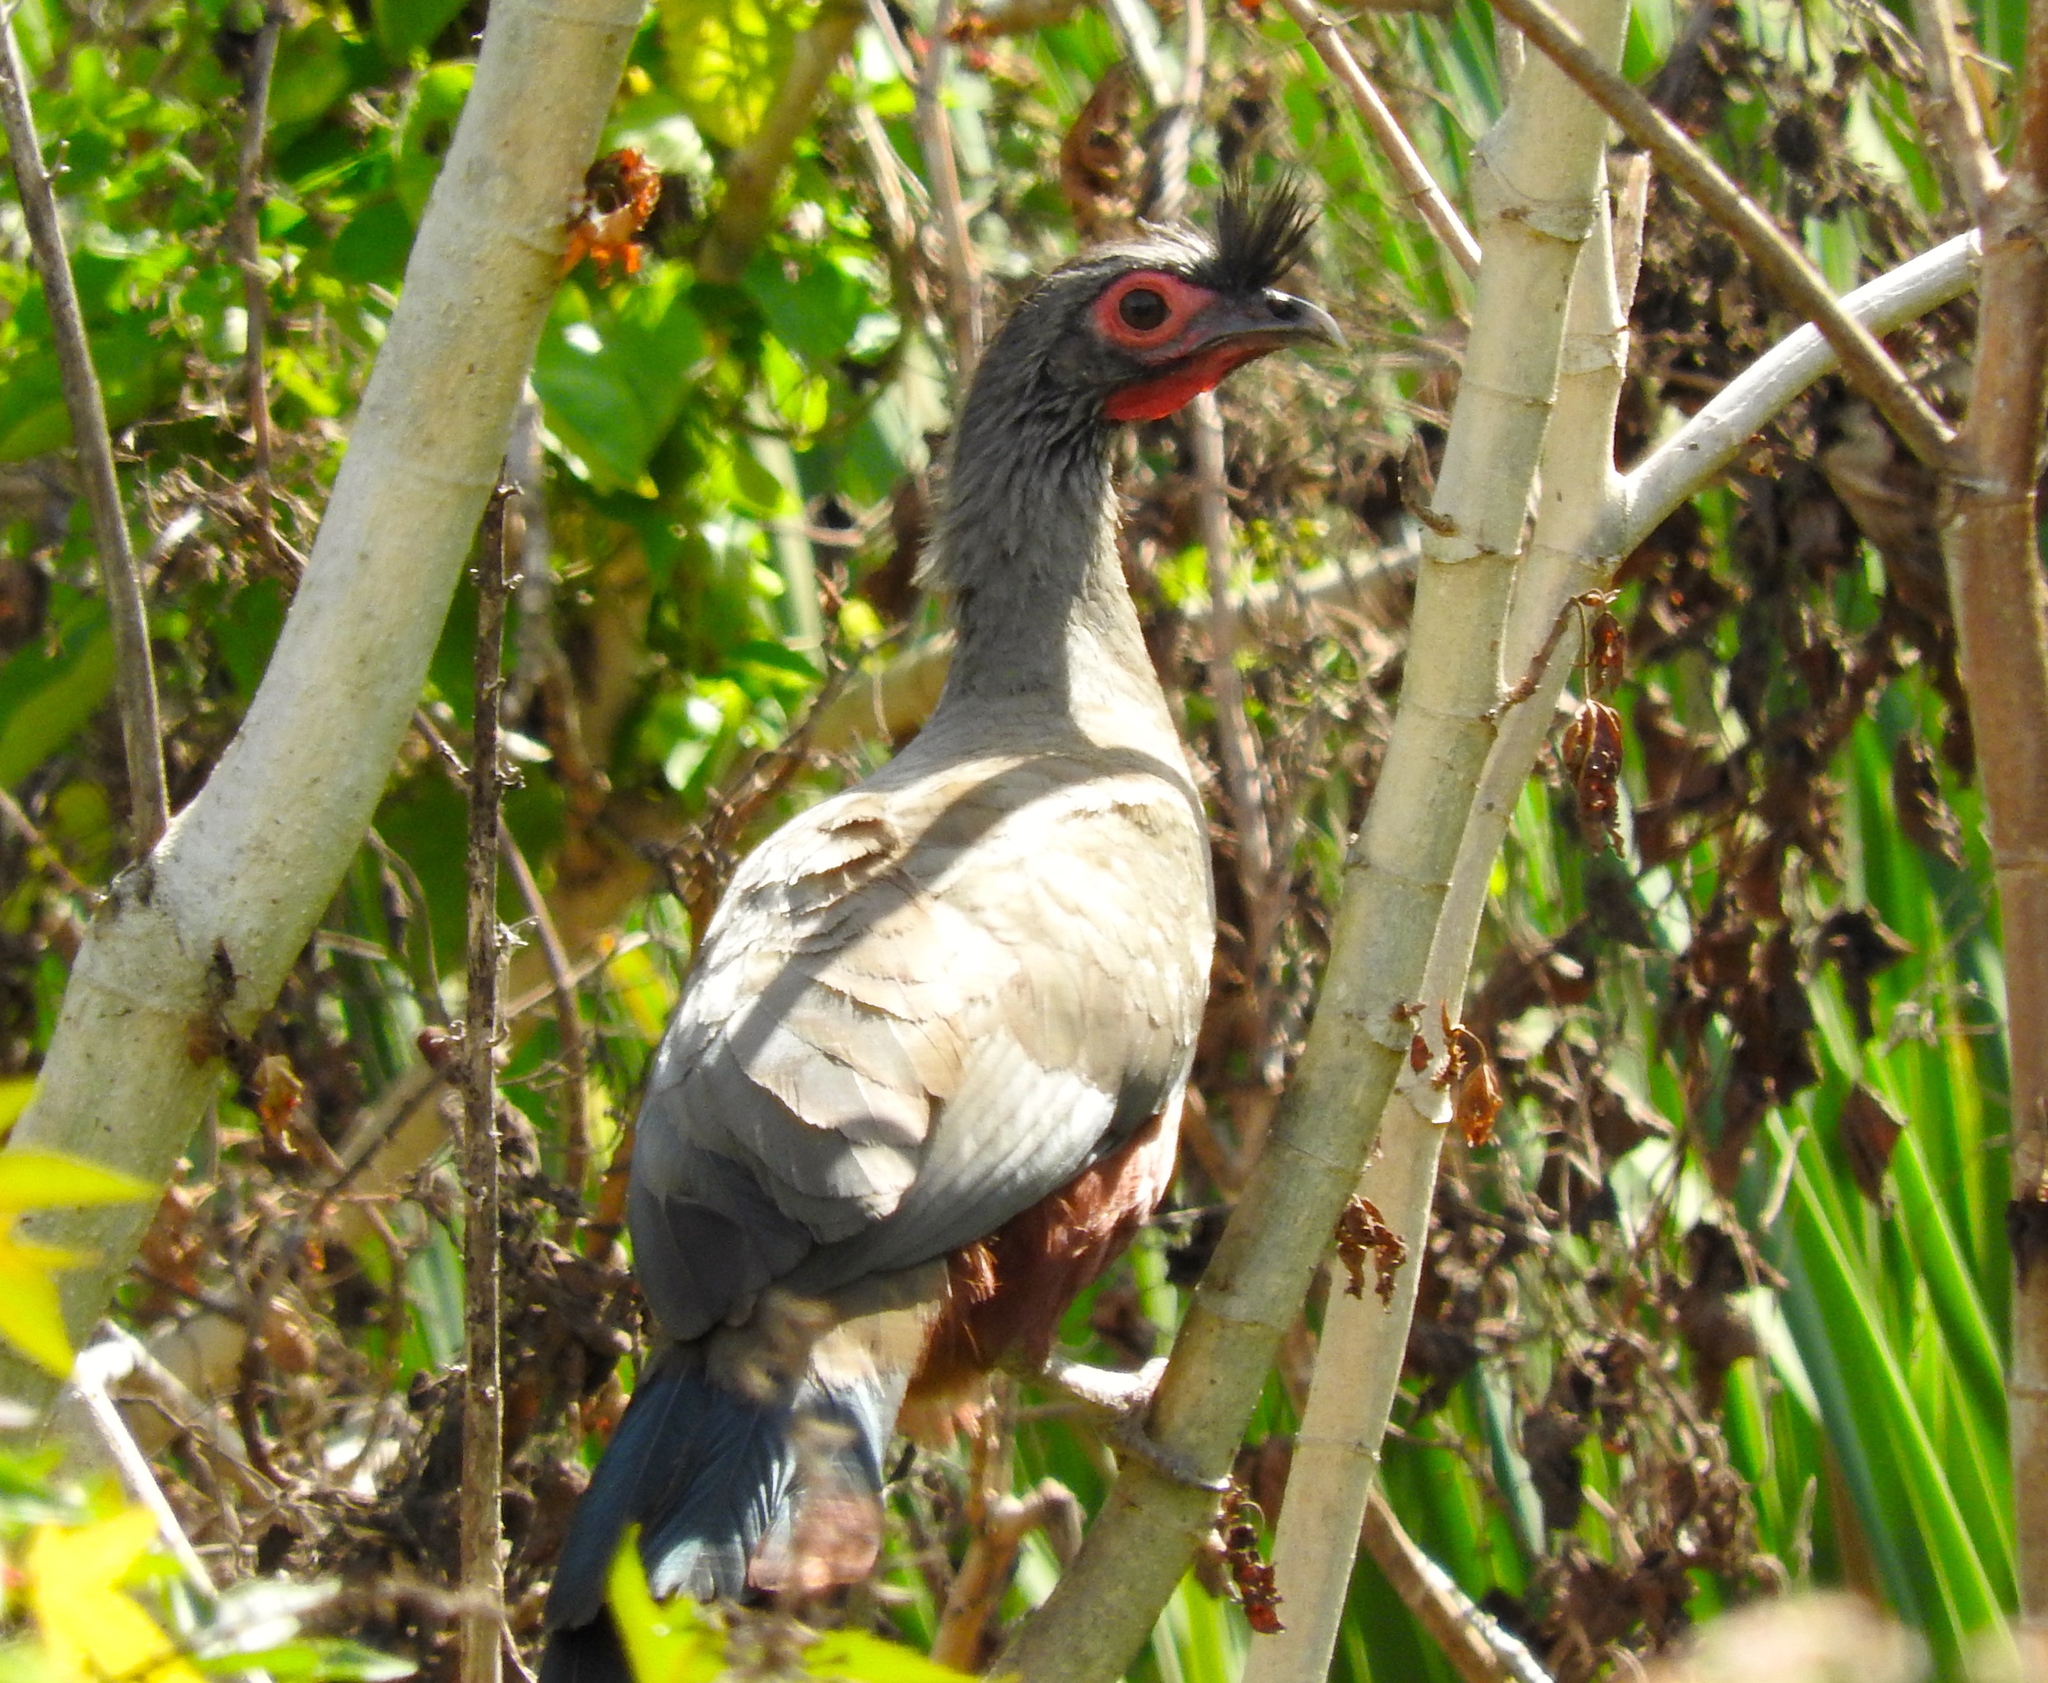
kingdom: Animalia
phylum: Chordata
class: Aves
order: Galliformes
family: Cracidae
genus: Ortalis
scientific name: Ortalis wagleri
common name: Rufous-bellied chachalaca
